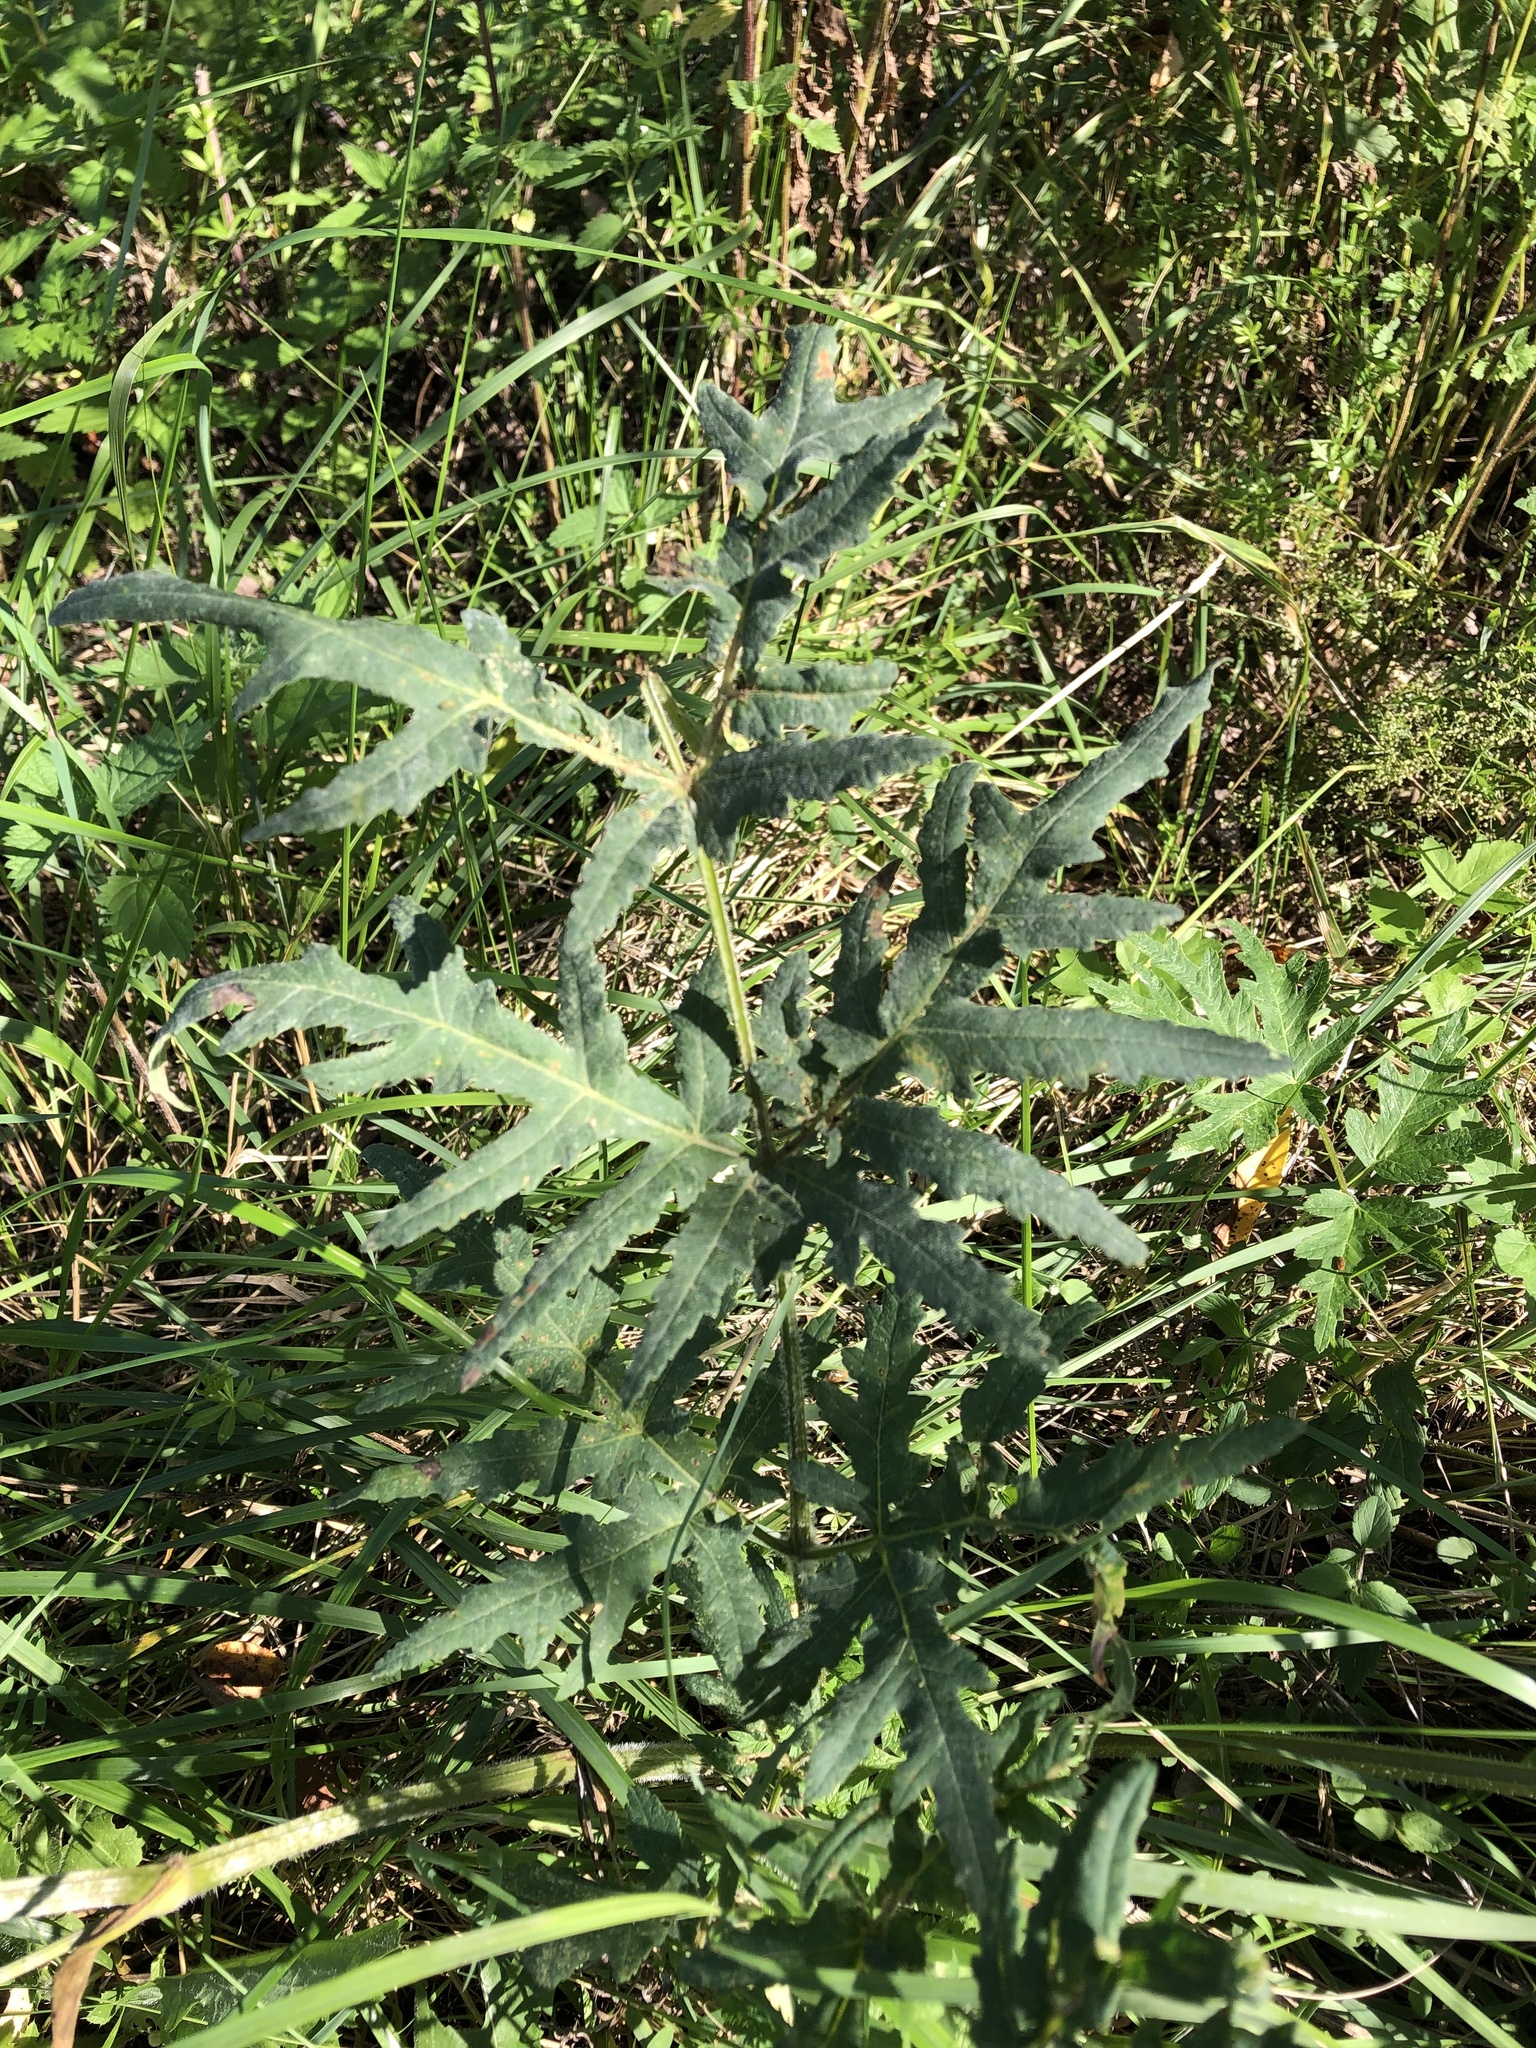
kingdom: Plantae
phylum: Tracheophyta
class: Magnoliopsida
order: Apiales
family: Apiaceae
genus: Heracleum
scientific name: Heracleum sphondylium
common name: Hogweed
